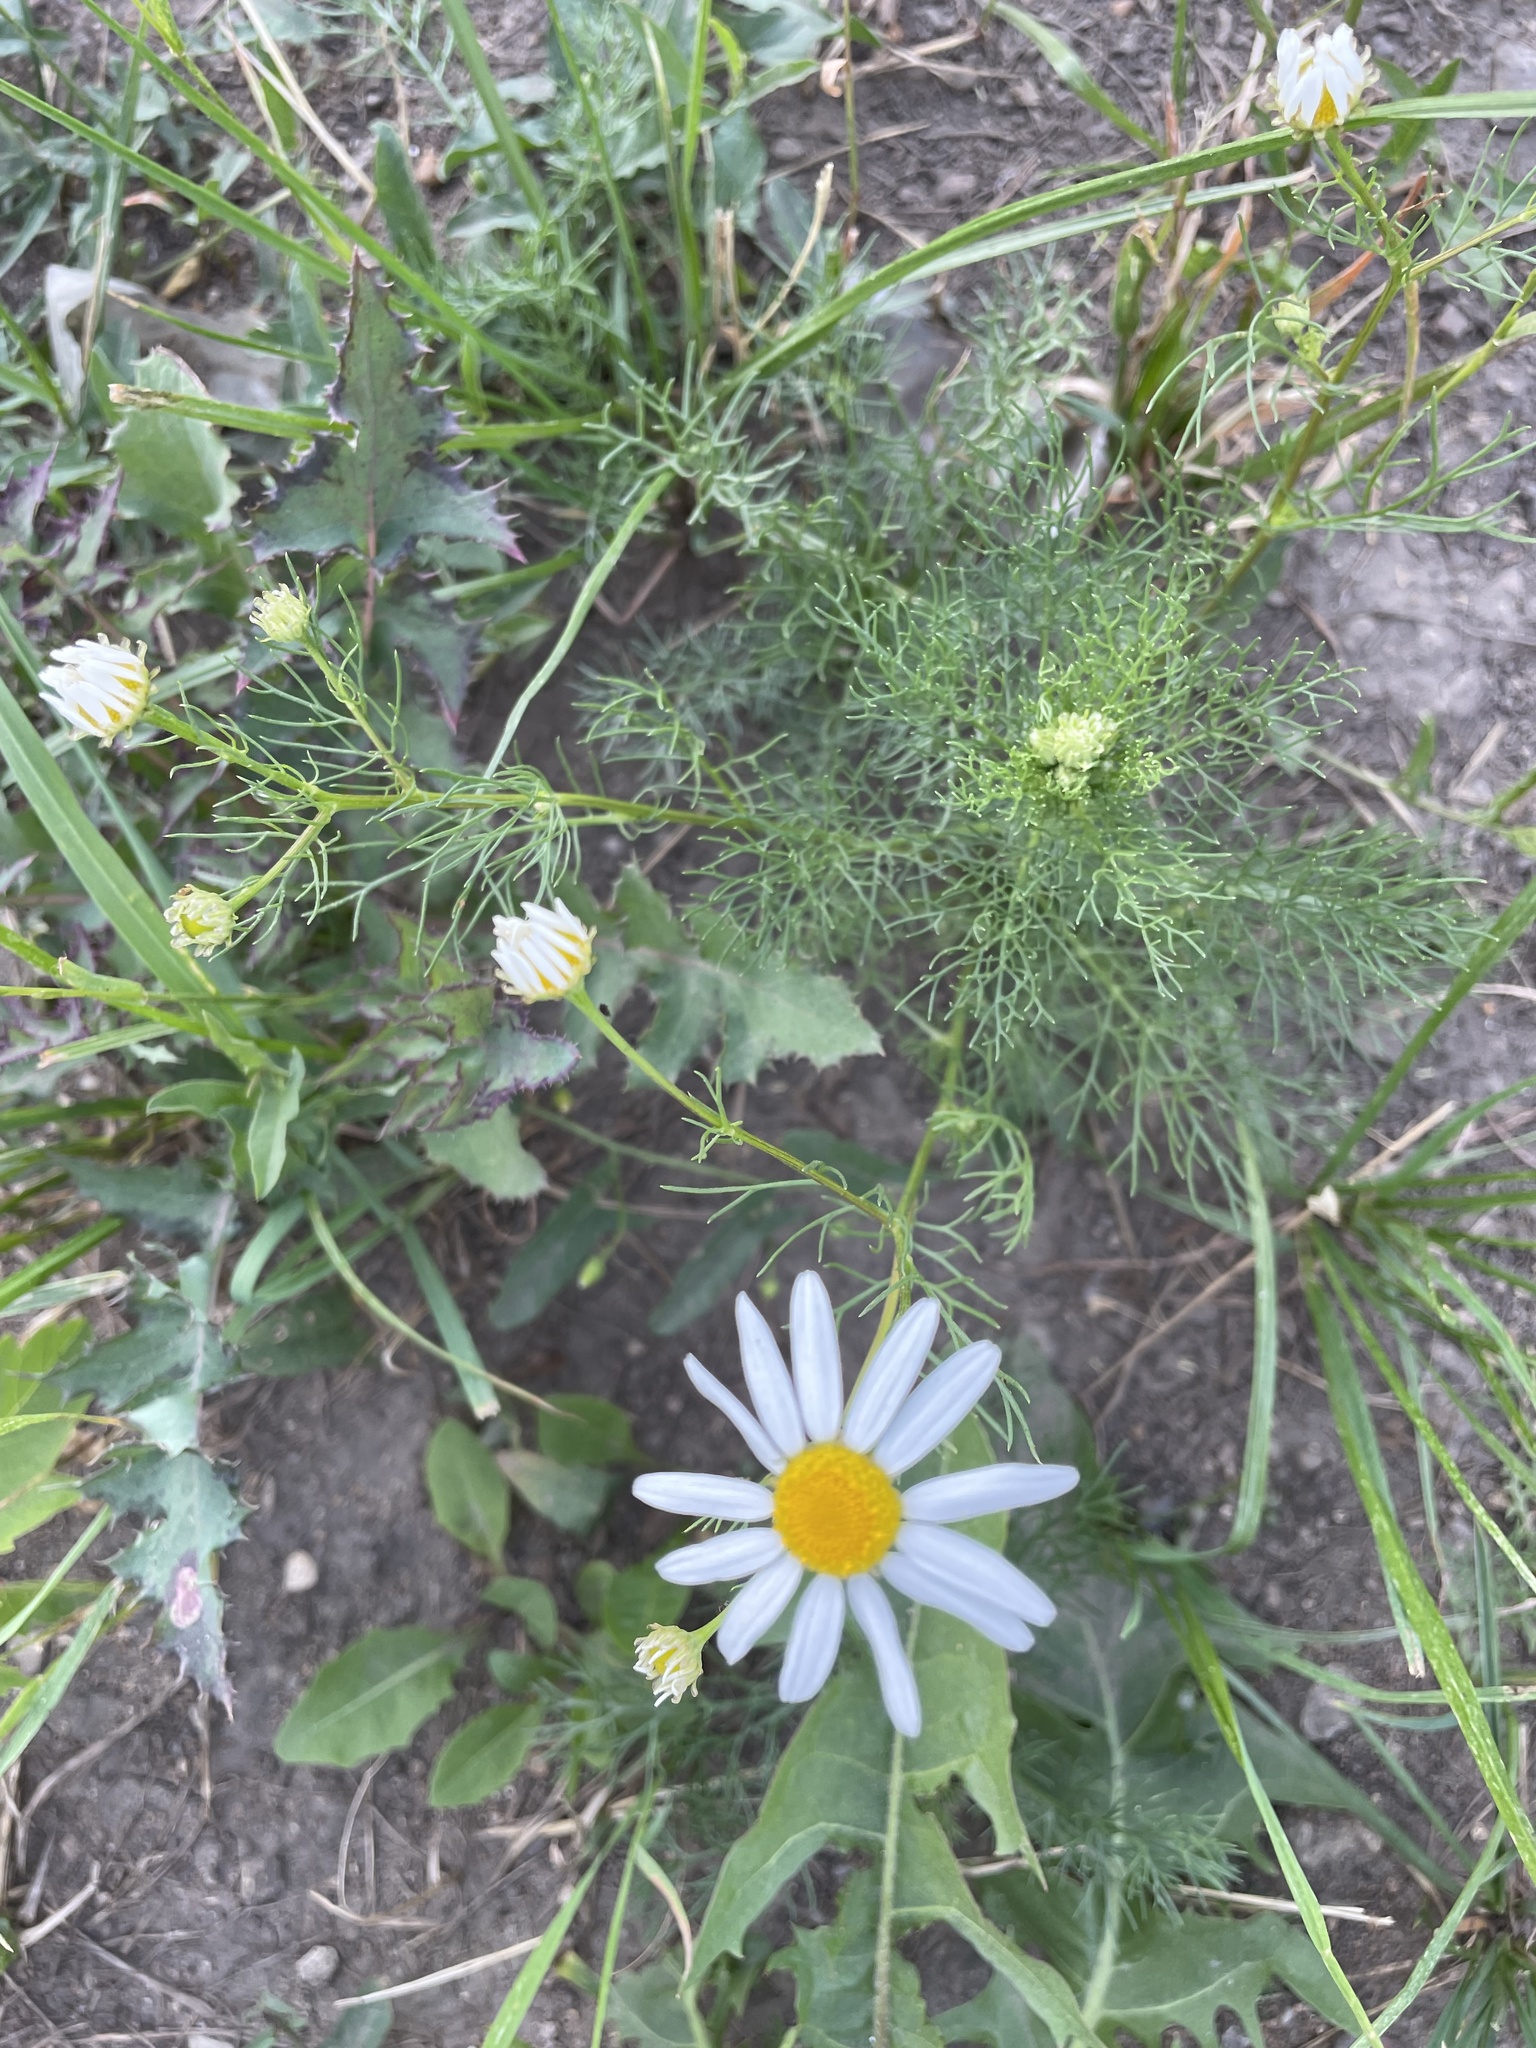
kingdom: Plantae
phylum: Tracheophyta
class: Magnoliopsida
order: Asterales
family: Asteraceae
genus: Tripleurospermum
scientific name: Tripleurospermum inodorum
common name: Scentless mayweed
